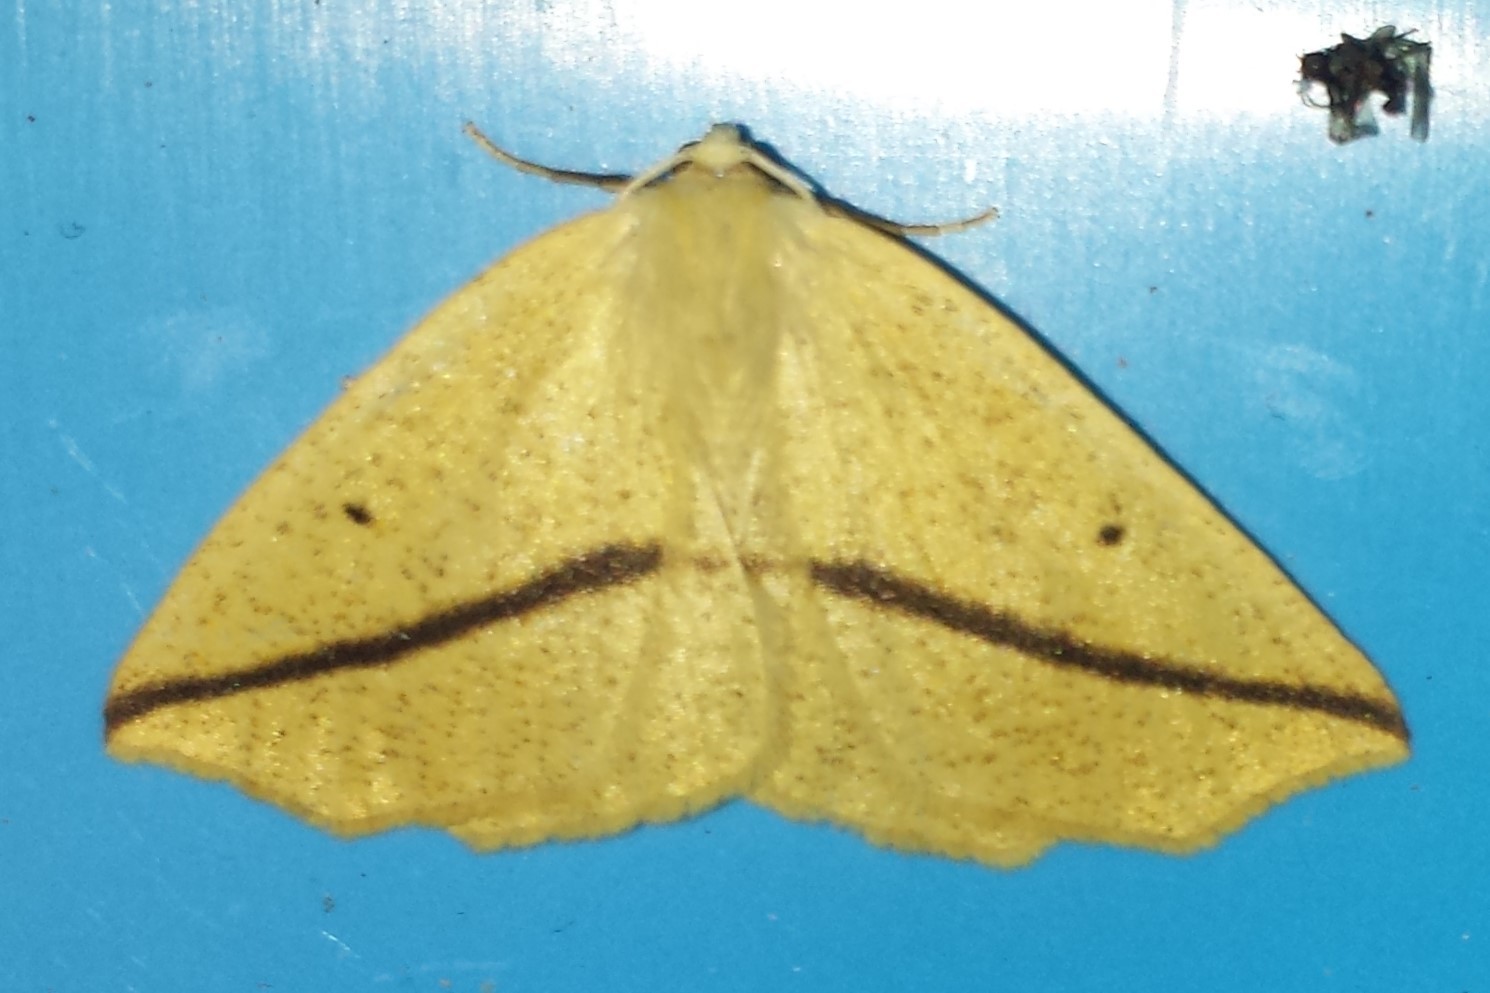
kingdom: Animalia
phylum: Arthropoda
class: Insecta
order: Lepidoptera
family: Geometridae
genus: Tetracis
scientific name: Tetracis crocallata
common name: Yellow slant-line
